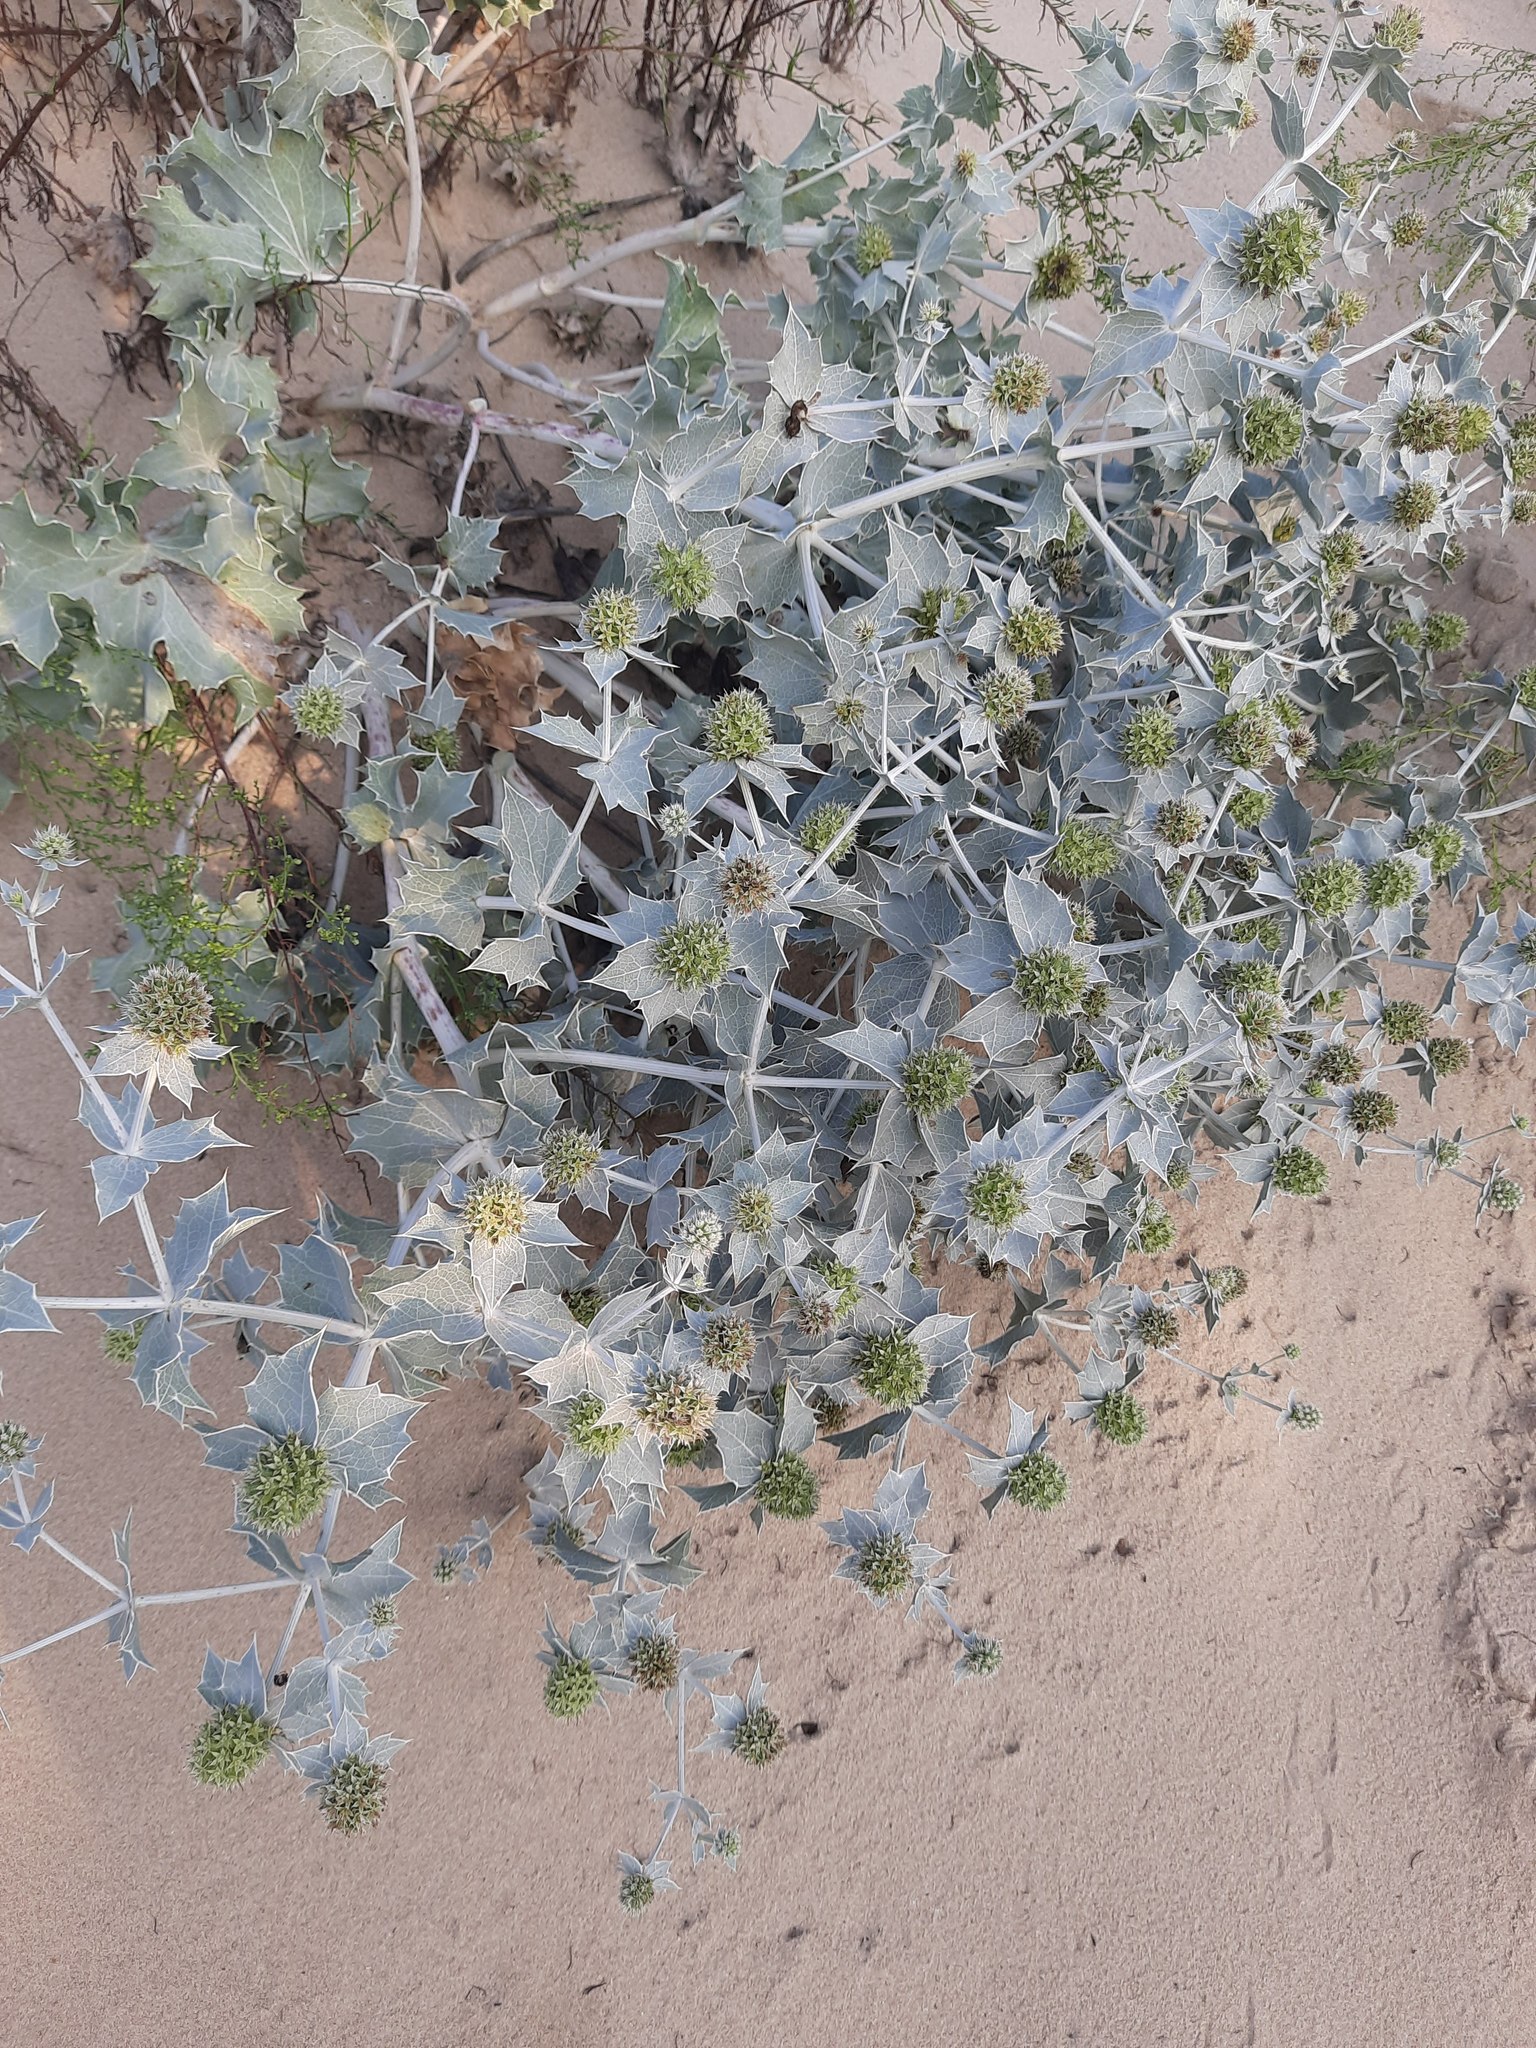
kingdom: Plantae
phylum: Tracheophyta
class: Magnoliopsida
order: Apiales
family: Apiaceae
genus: Eryngium
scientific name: Eryngium maritimum
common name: Sea-holly
